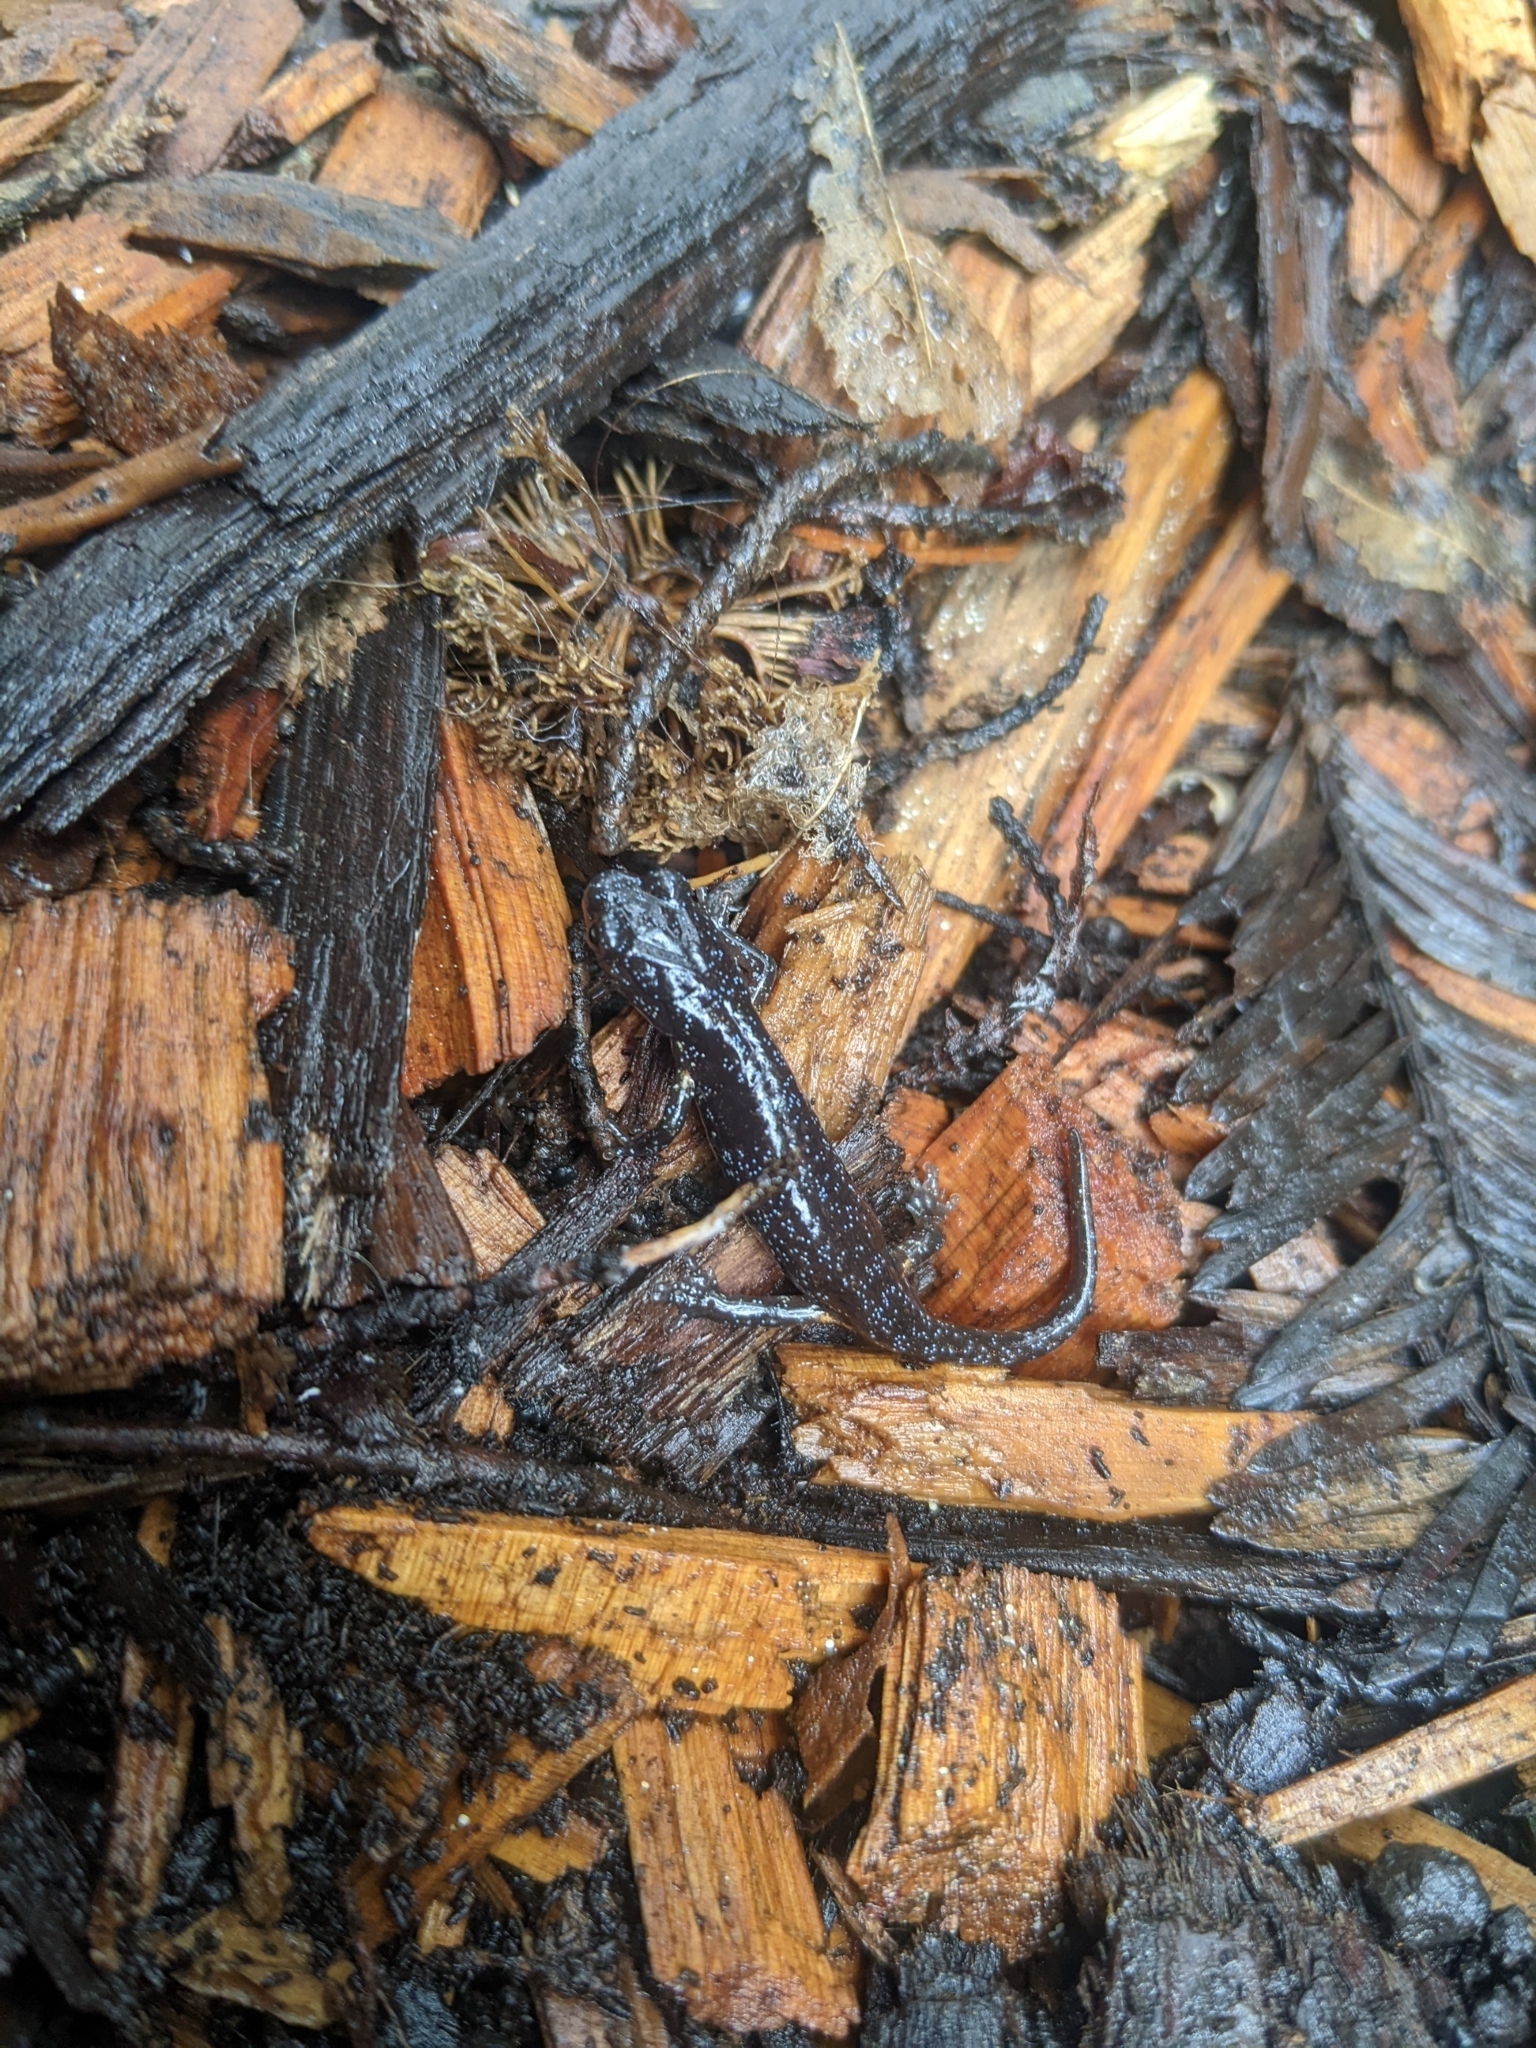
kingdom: Animalia
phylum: Chordata
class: Amphibia
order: Caudata
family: Plethodontidae
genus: Aneides
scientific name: Aneides lugubris
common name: Arboreal salamander
